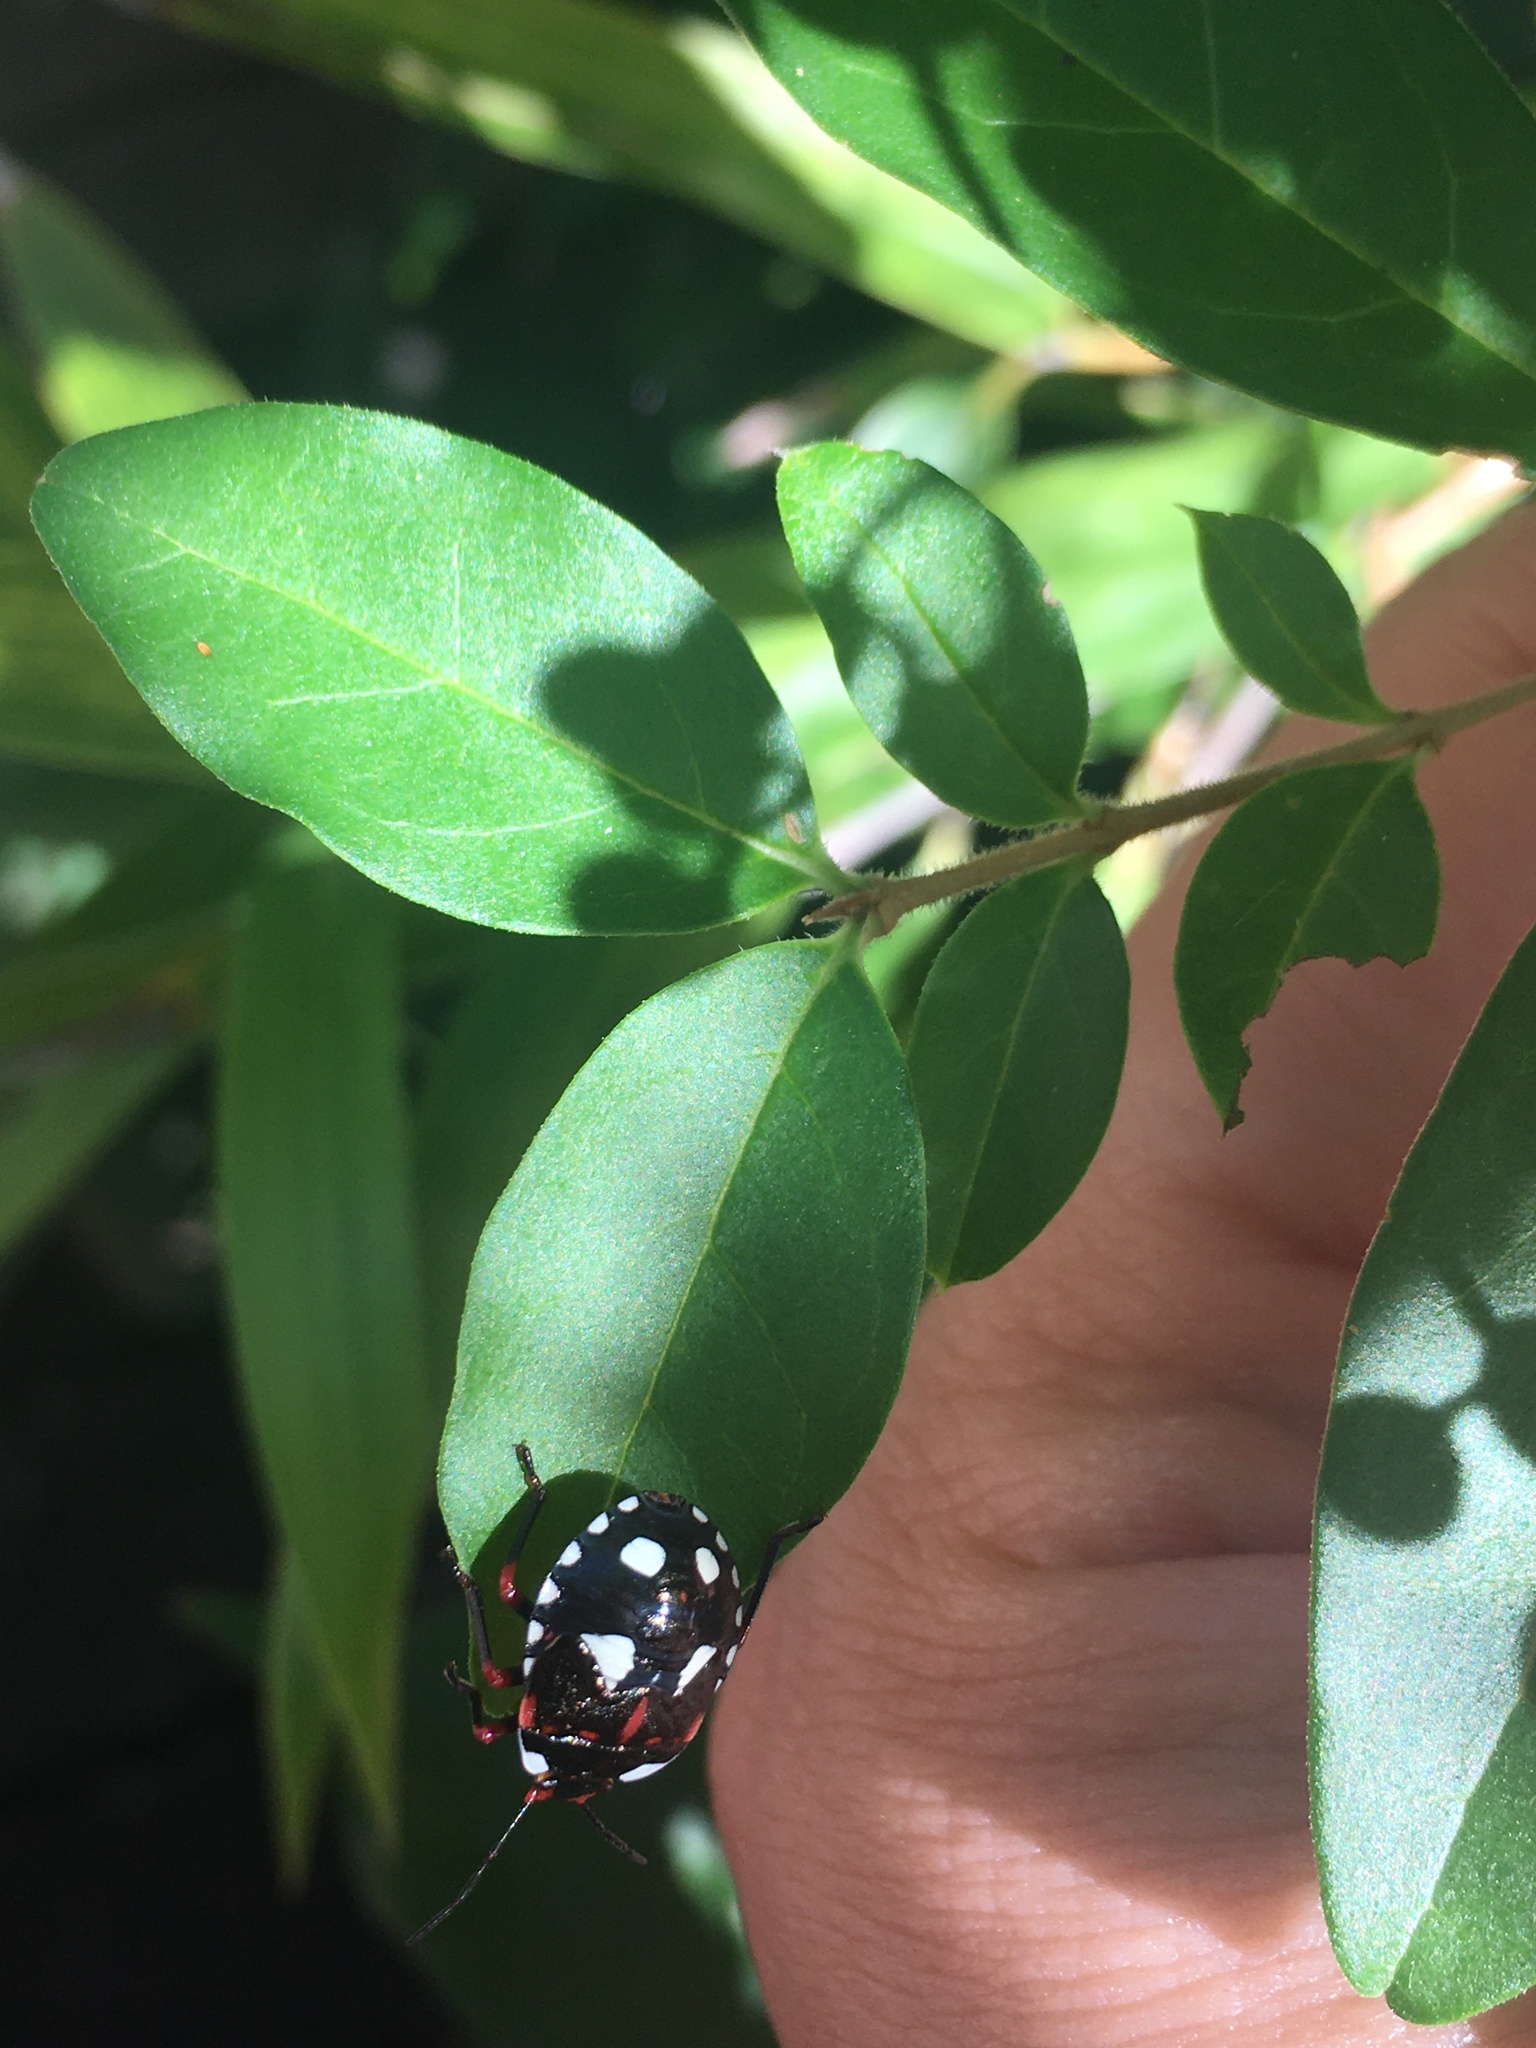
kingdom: Animalia
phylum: Arthropoda
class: Insecta
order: Hemiptera
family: Pentatomidae
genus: Chinavia
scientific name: Chinavia erythrocnemis
